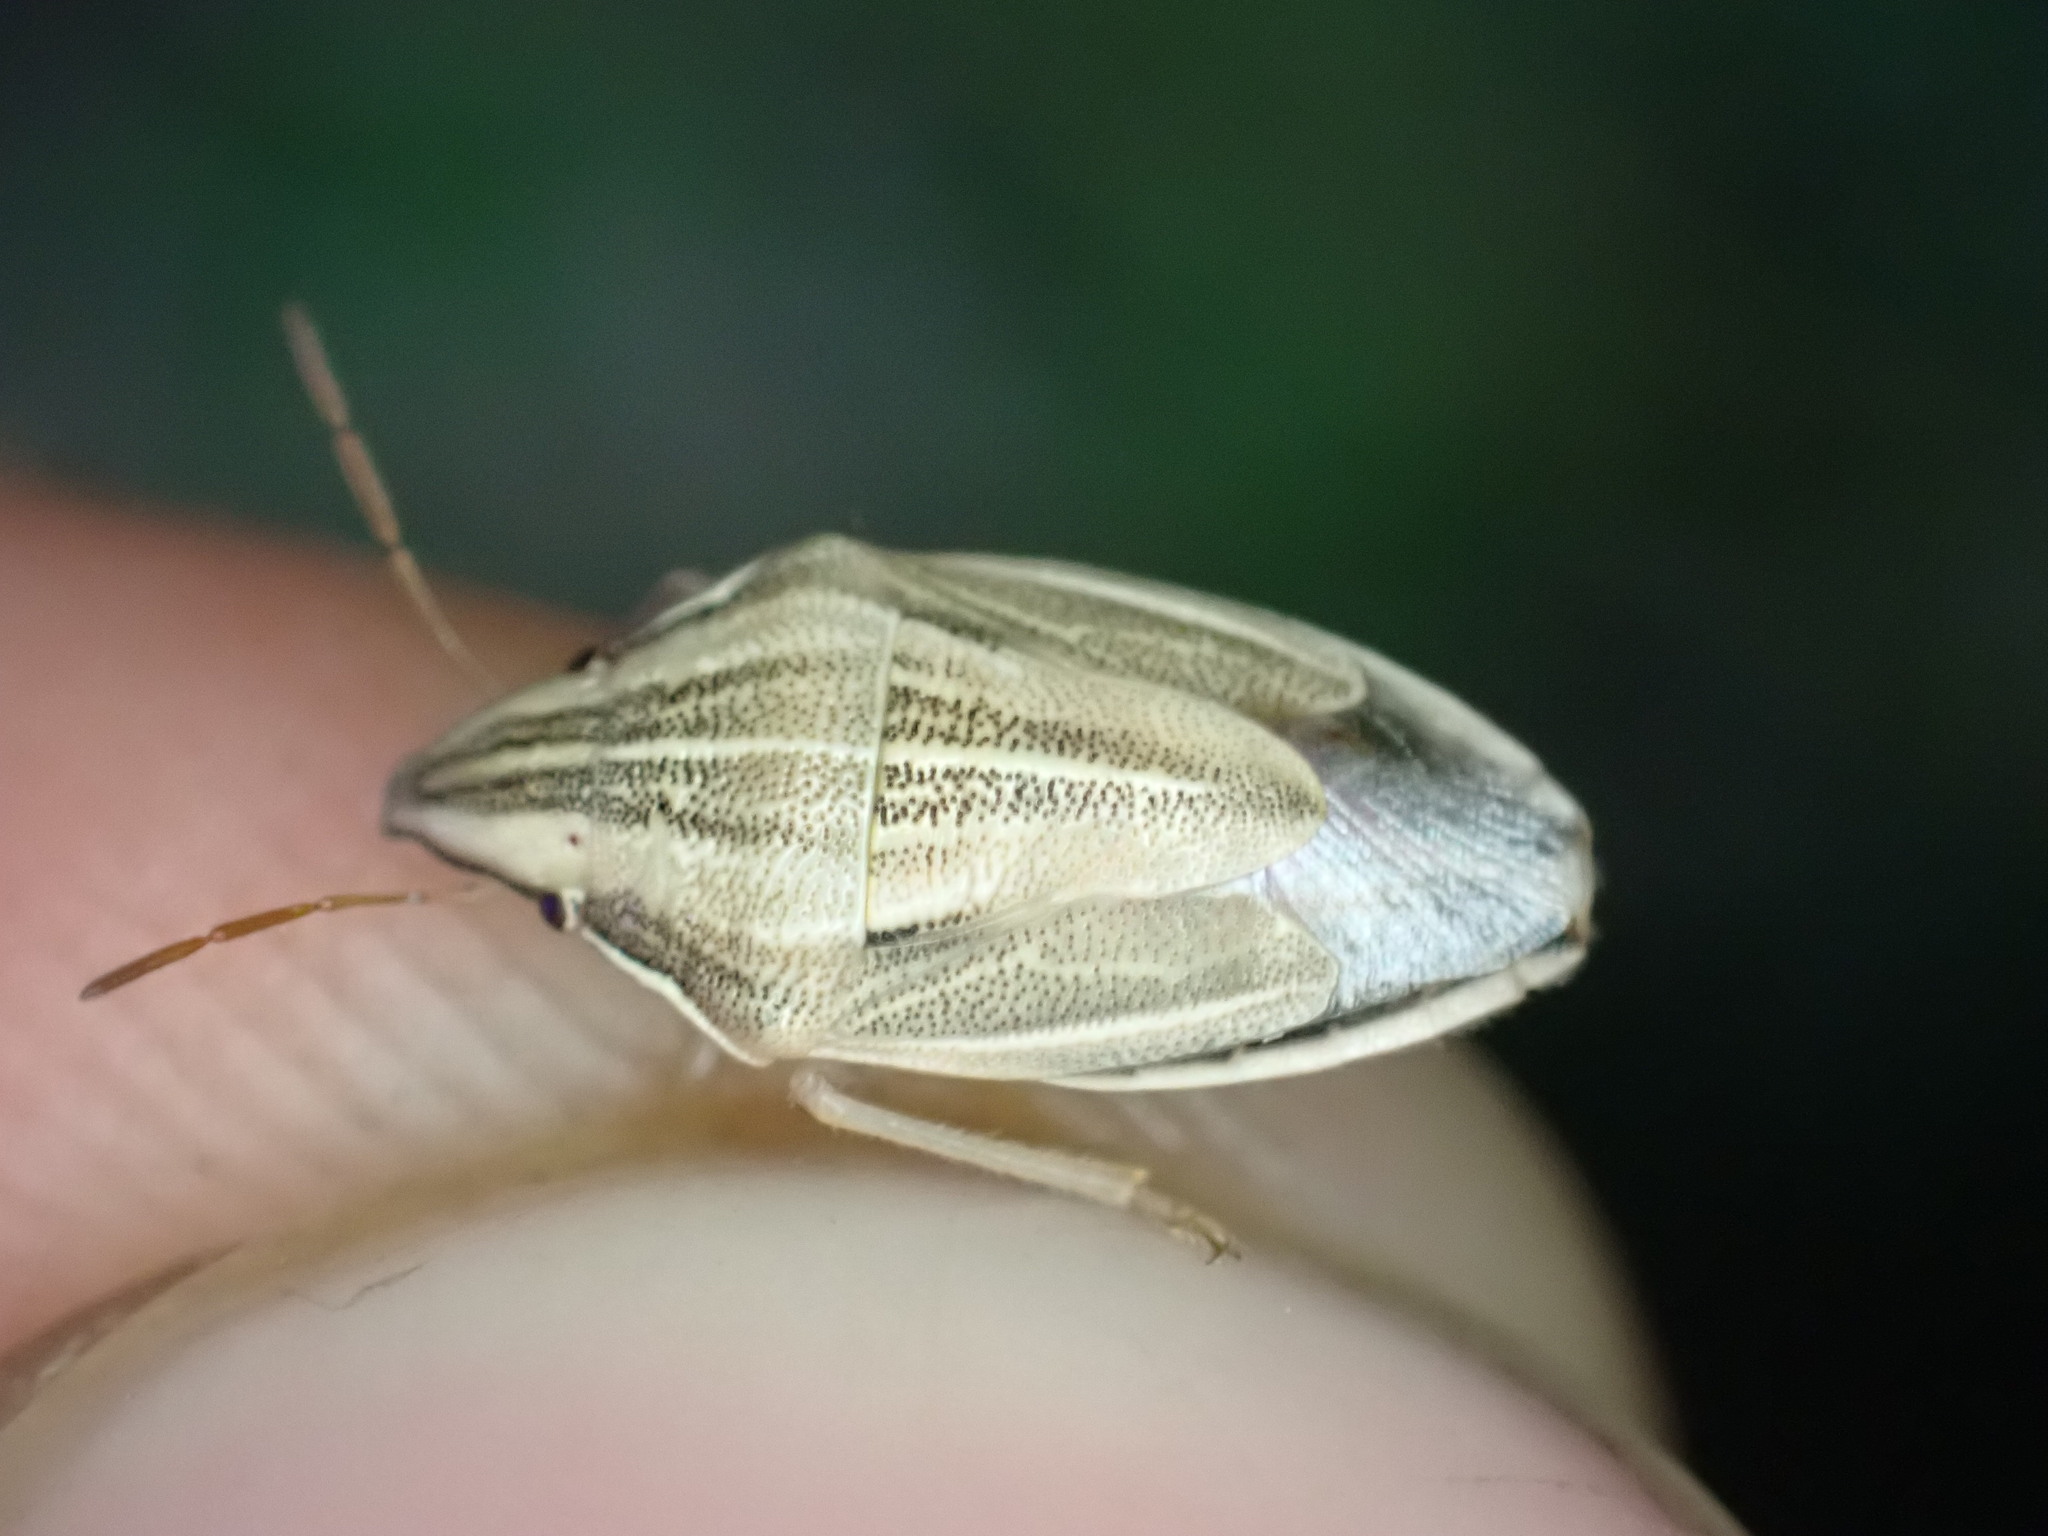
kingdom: Animalia
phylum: Arthropoda
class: Insecta
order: Hemiptera
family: Pentatomidae
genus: Aelia
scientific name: Aelia acuminata
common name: Bishop's mitre
